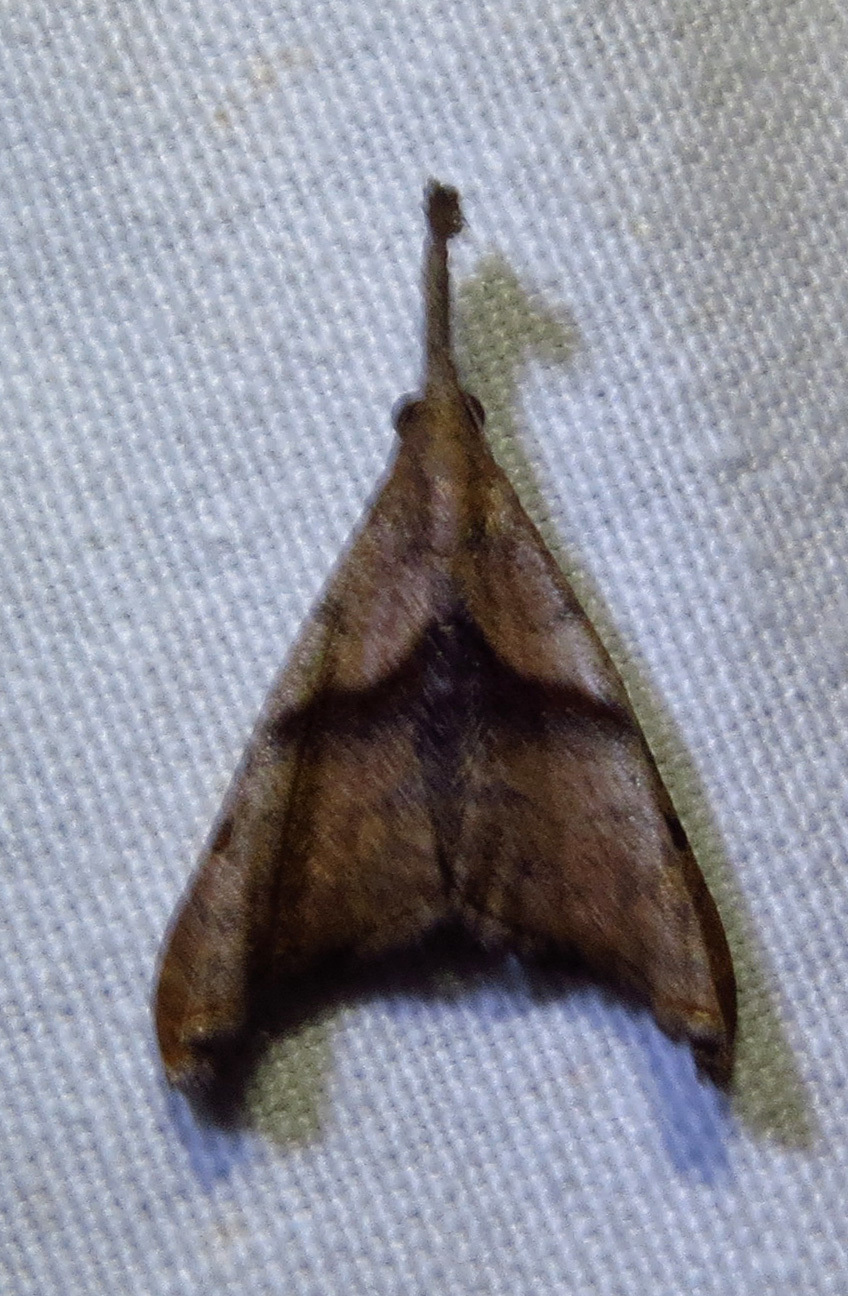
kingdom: Animalia
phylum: Arthropoda
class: Insecta
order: Lepidoptera
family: Erebidae
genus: Palthis
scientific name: Palthis angulalis
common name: Dark-spotted palthis moth
